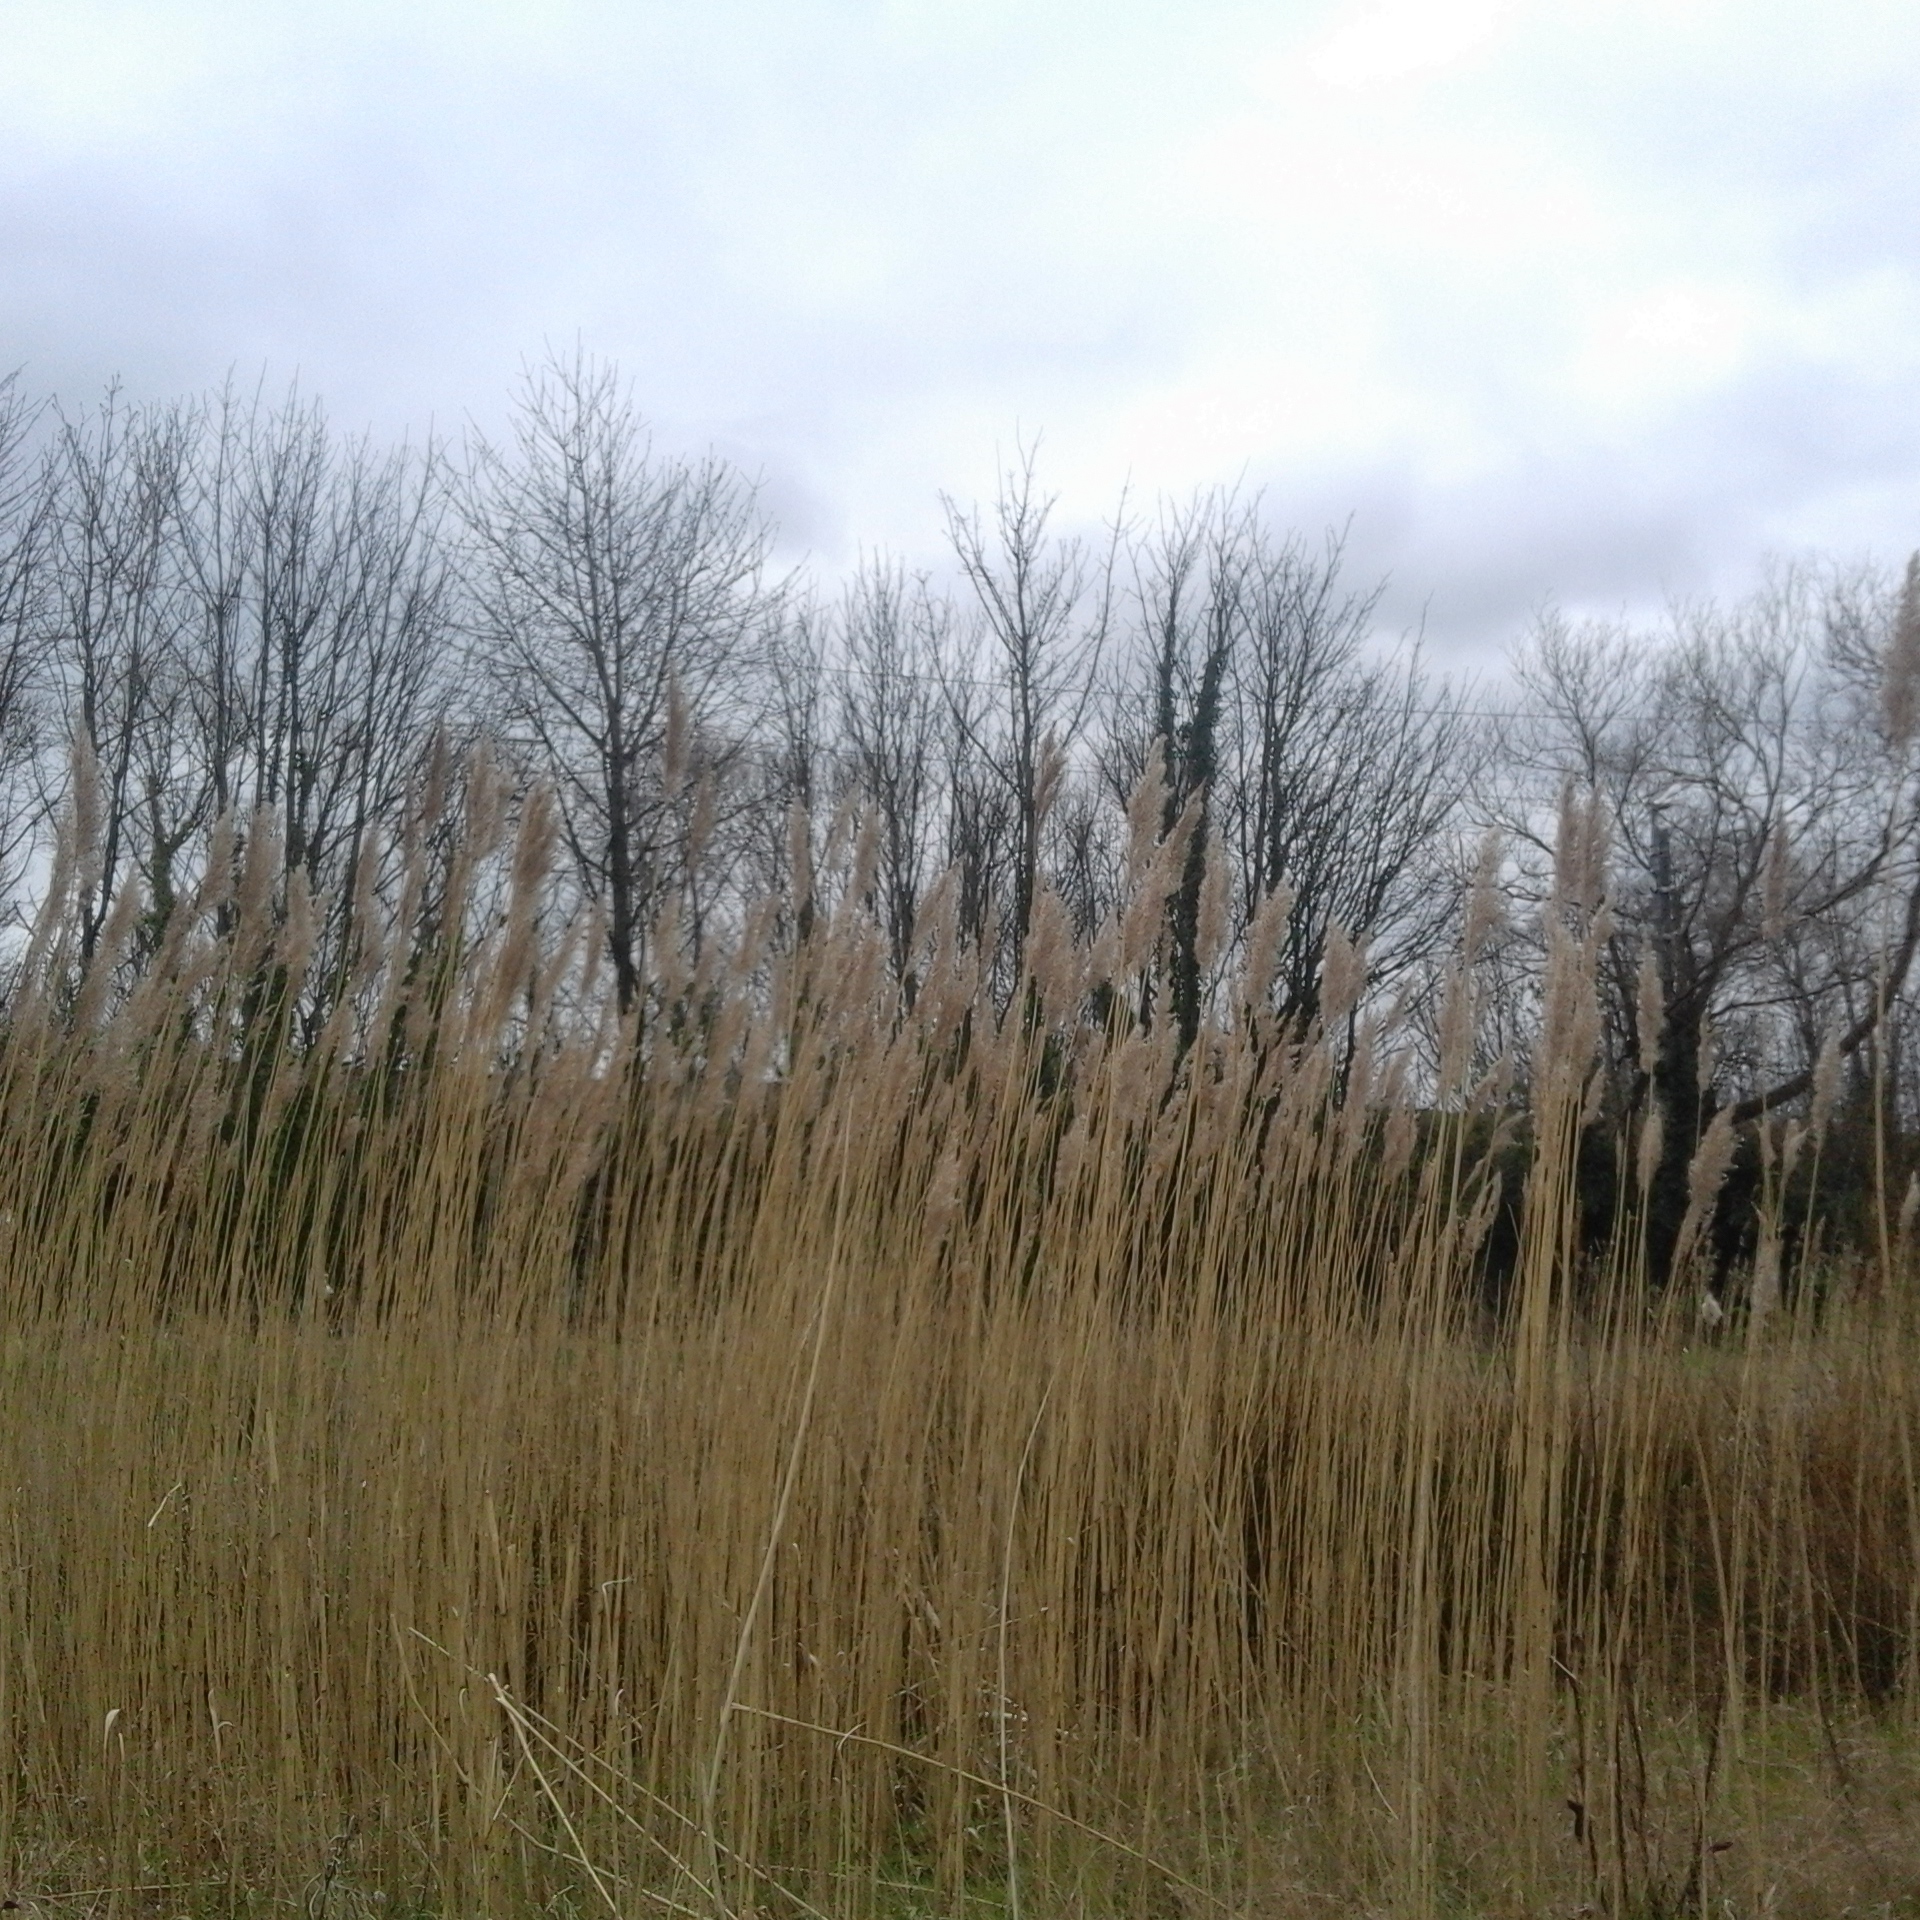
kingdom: Plantae
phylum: Tracheophyta
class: Liliopsida
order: Poales
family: Poaceae
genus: Phragmites
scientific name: Phragmites australis
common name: Common reed
